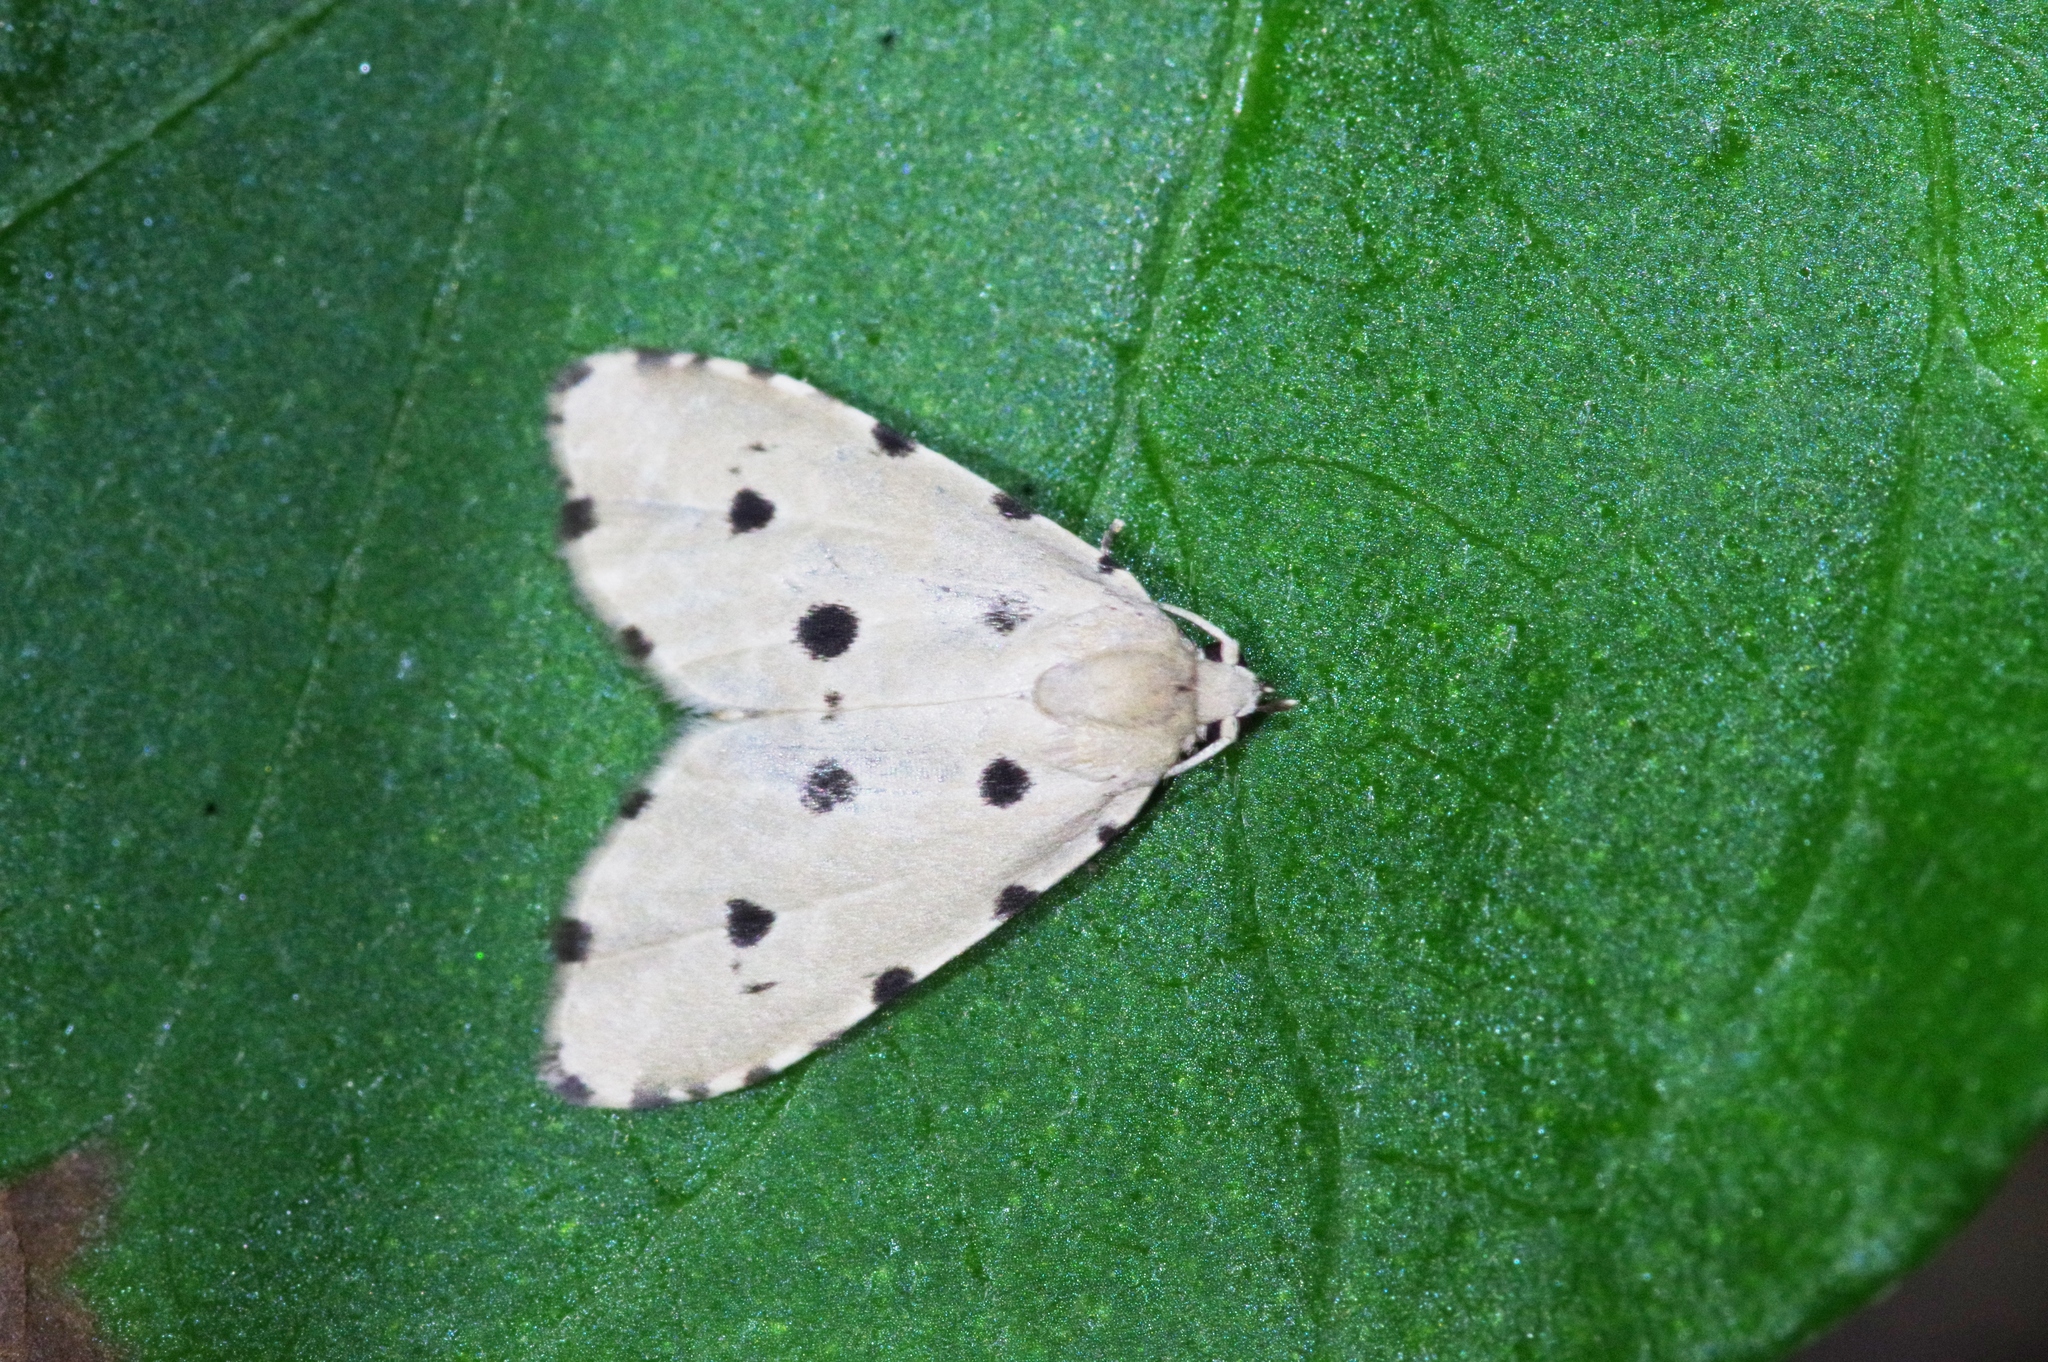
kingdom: Animalia
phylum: Arthropoda
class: Insecta
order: Lepidoptera
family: Noctuidae
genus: Metaemene
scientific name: Metaemene atrigutta
